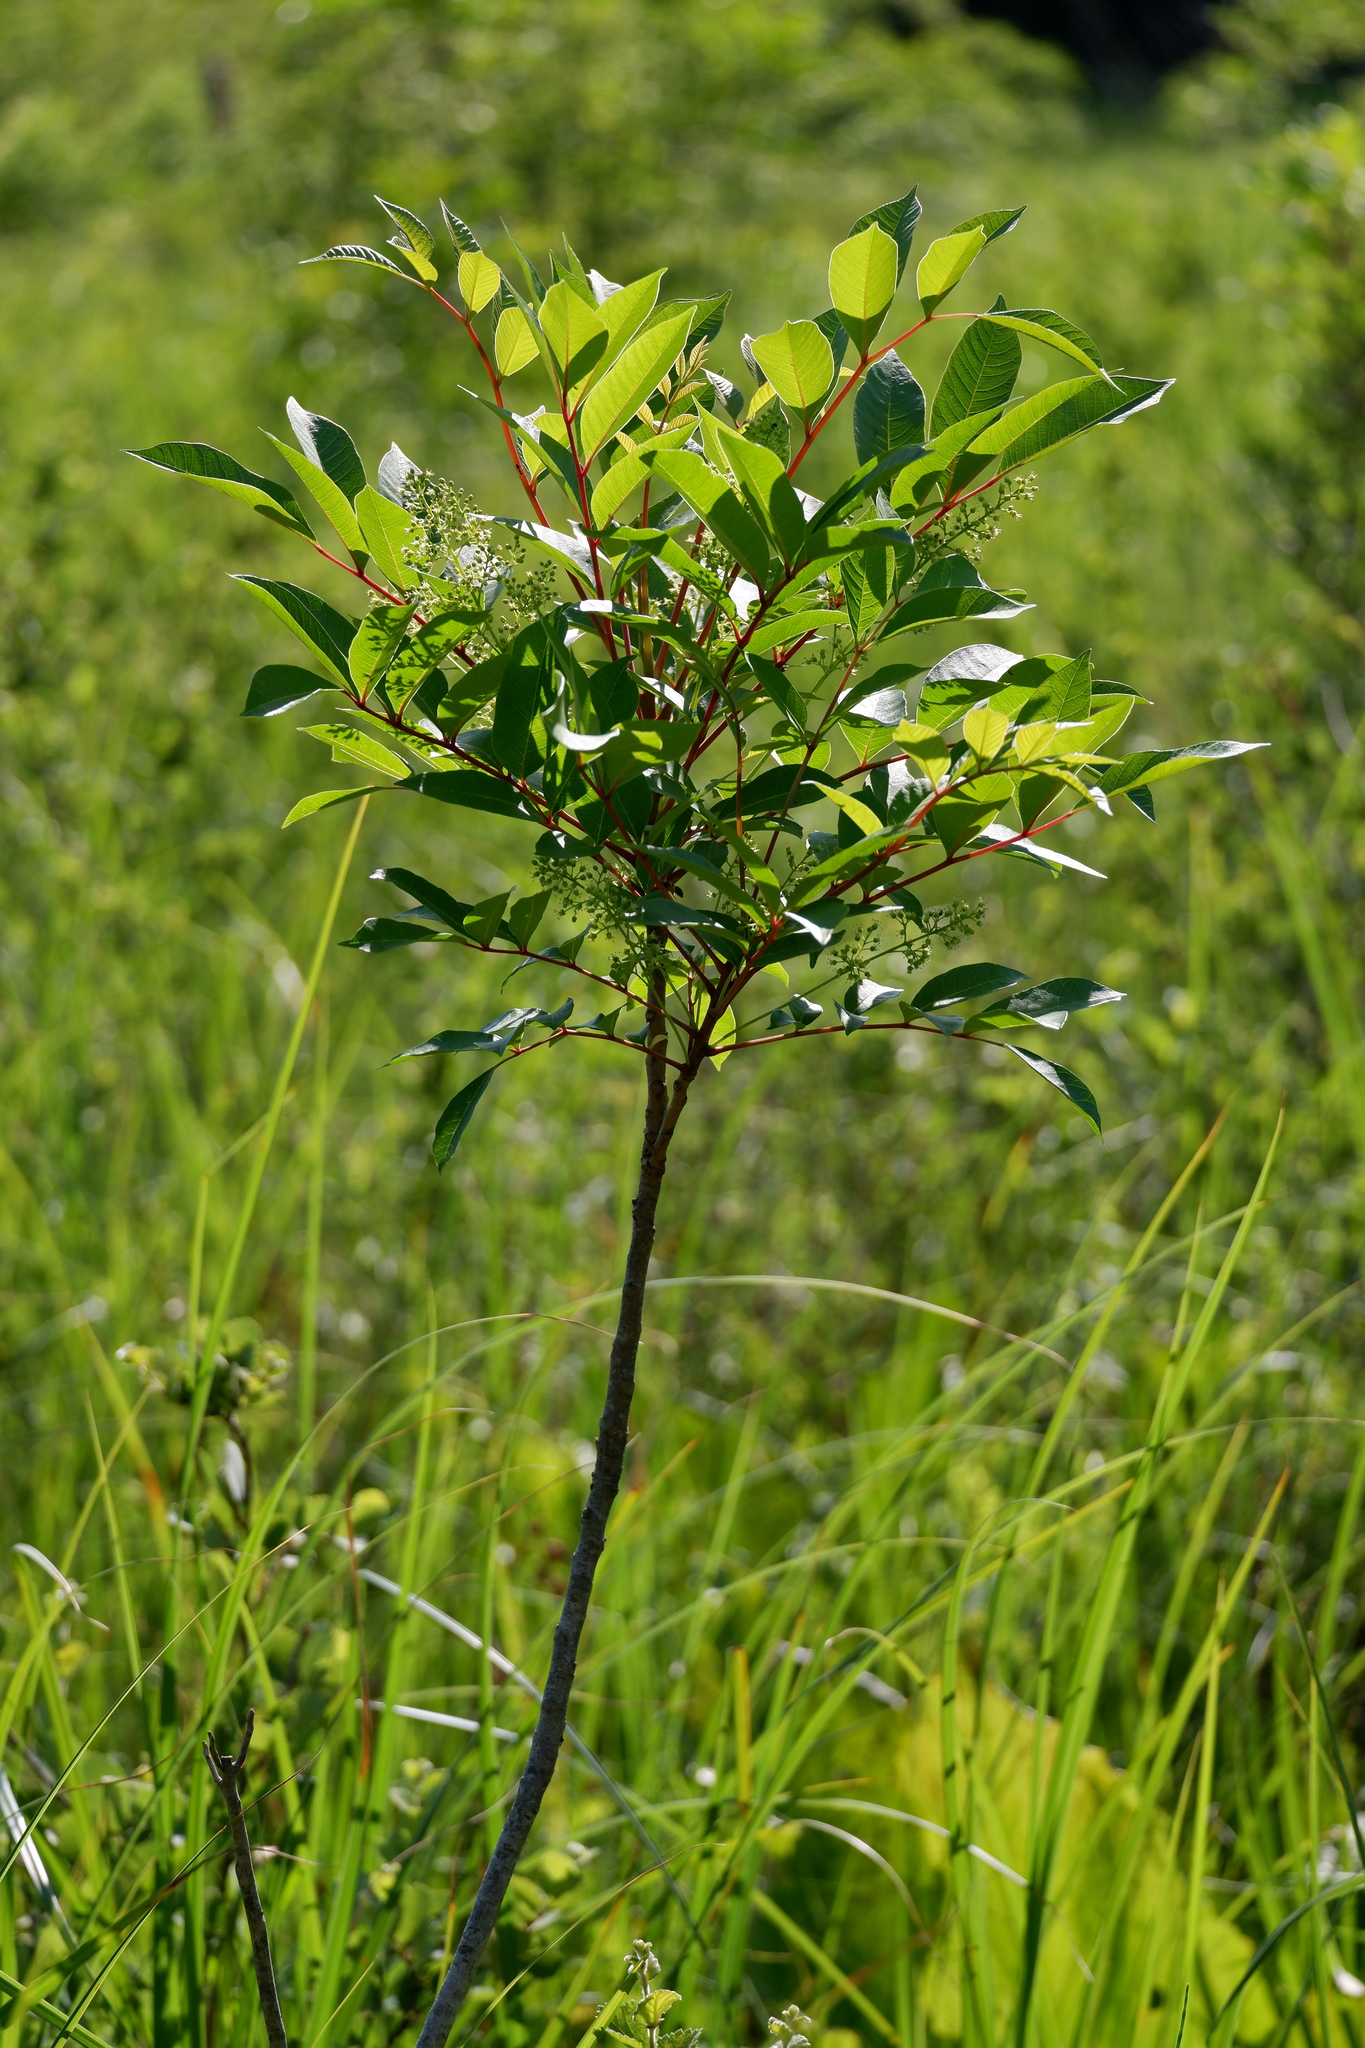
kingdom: Plantae
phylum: Tracheophyta
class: Magnoliopsida
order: Sapindales
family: Anacardiaceae
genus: Toxicodendron
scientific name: Toxicodendron vernix
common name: Poison sumac
